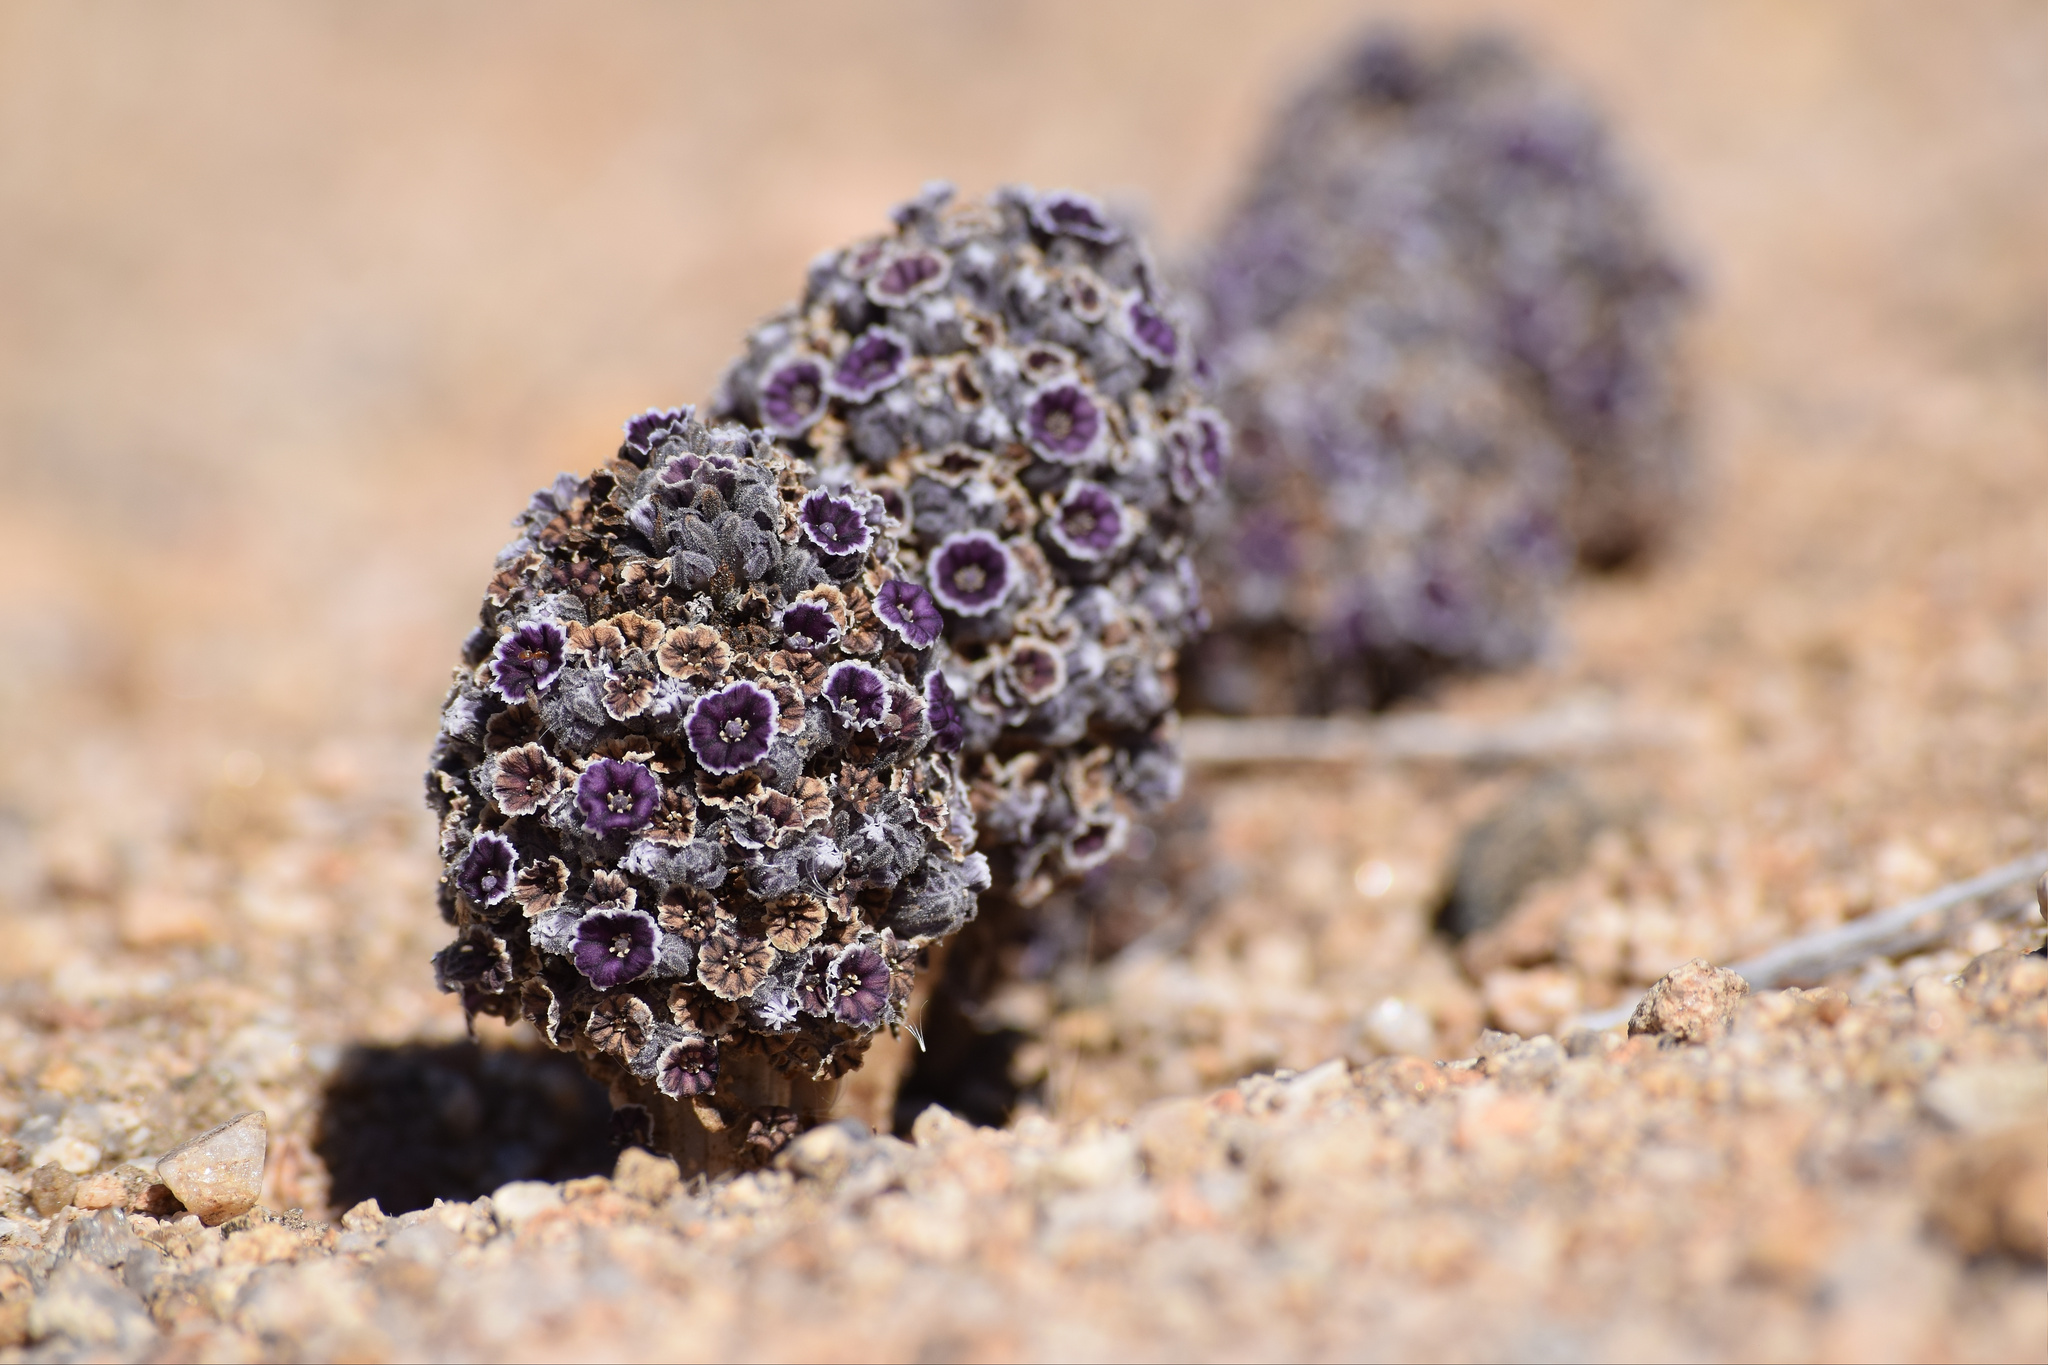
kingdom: Plantae
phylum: Tracheophyta
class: Magnoliopsida
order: Boraginales
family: Lennoaceae
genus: Pholisma
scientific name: Pholisma arenarium
